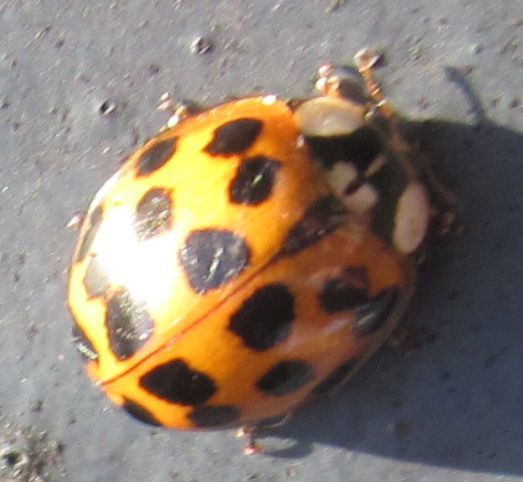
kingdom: Animalia
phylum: Arthropoda
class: Insecta
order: Coleoptera
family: Coccinellidae
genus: Harmonia
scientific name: Harmonia axyridis
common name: Harlequin ladybird
